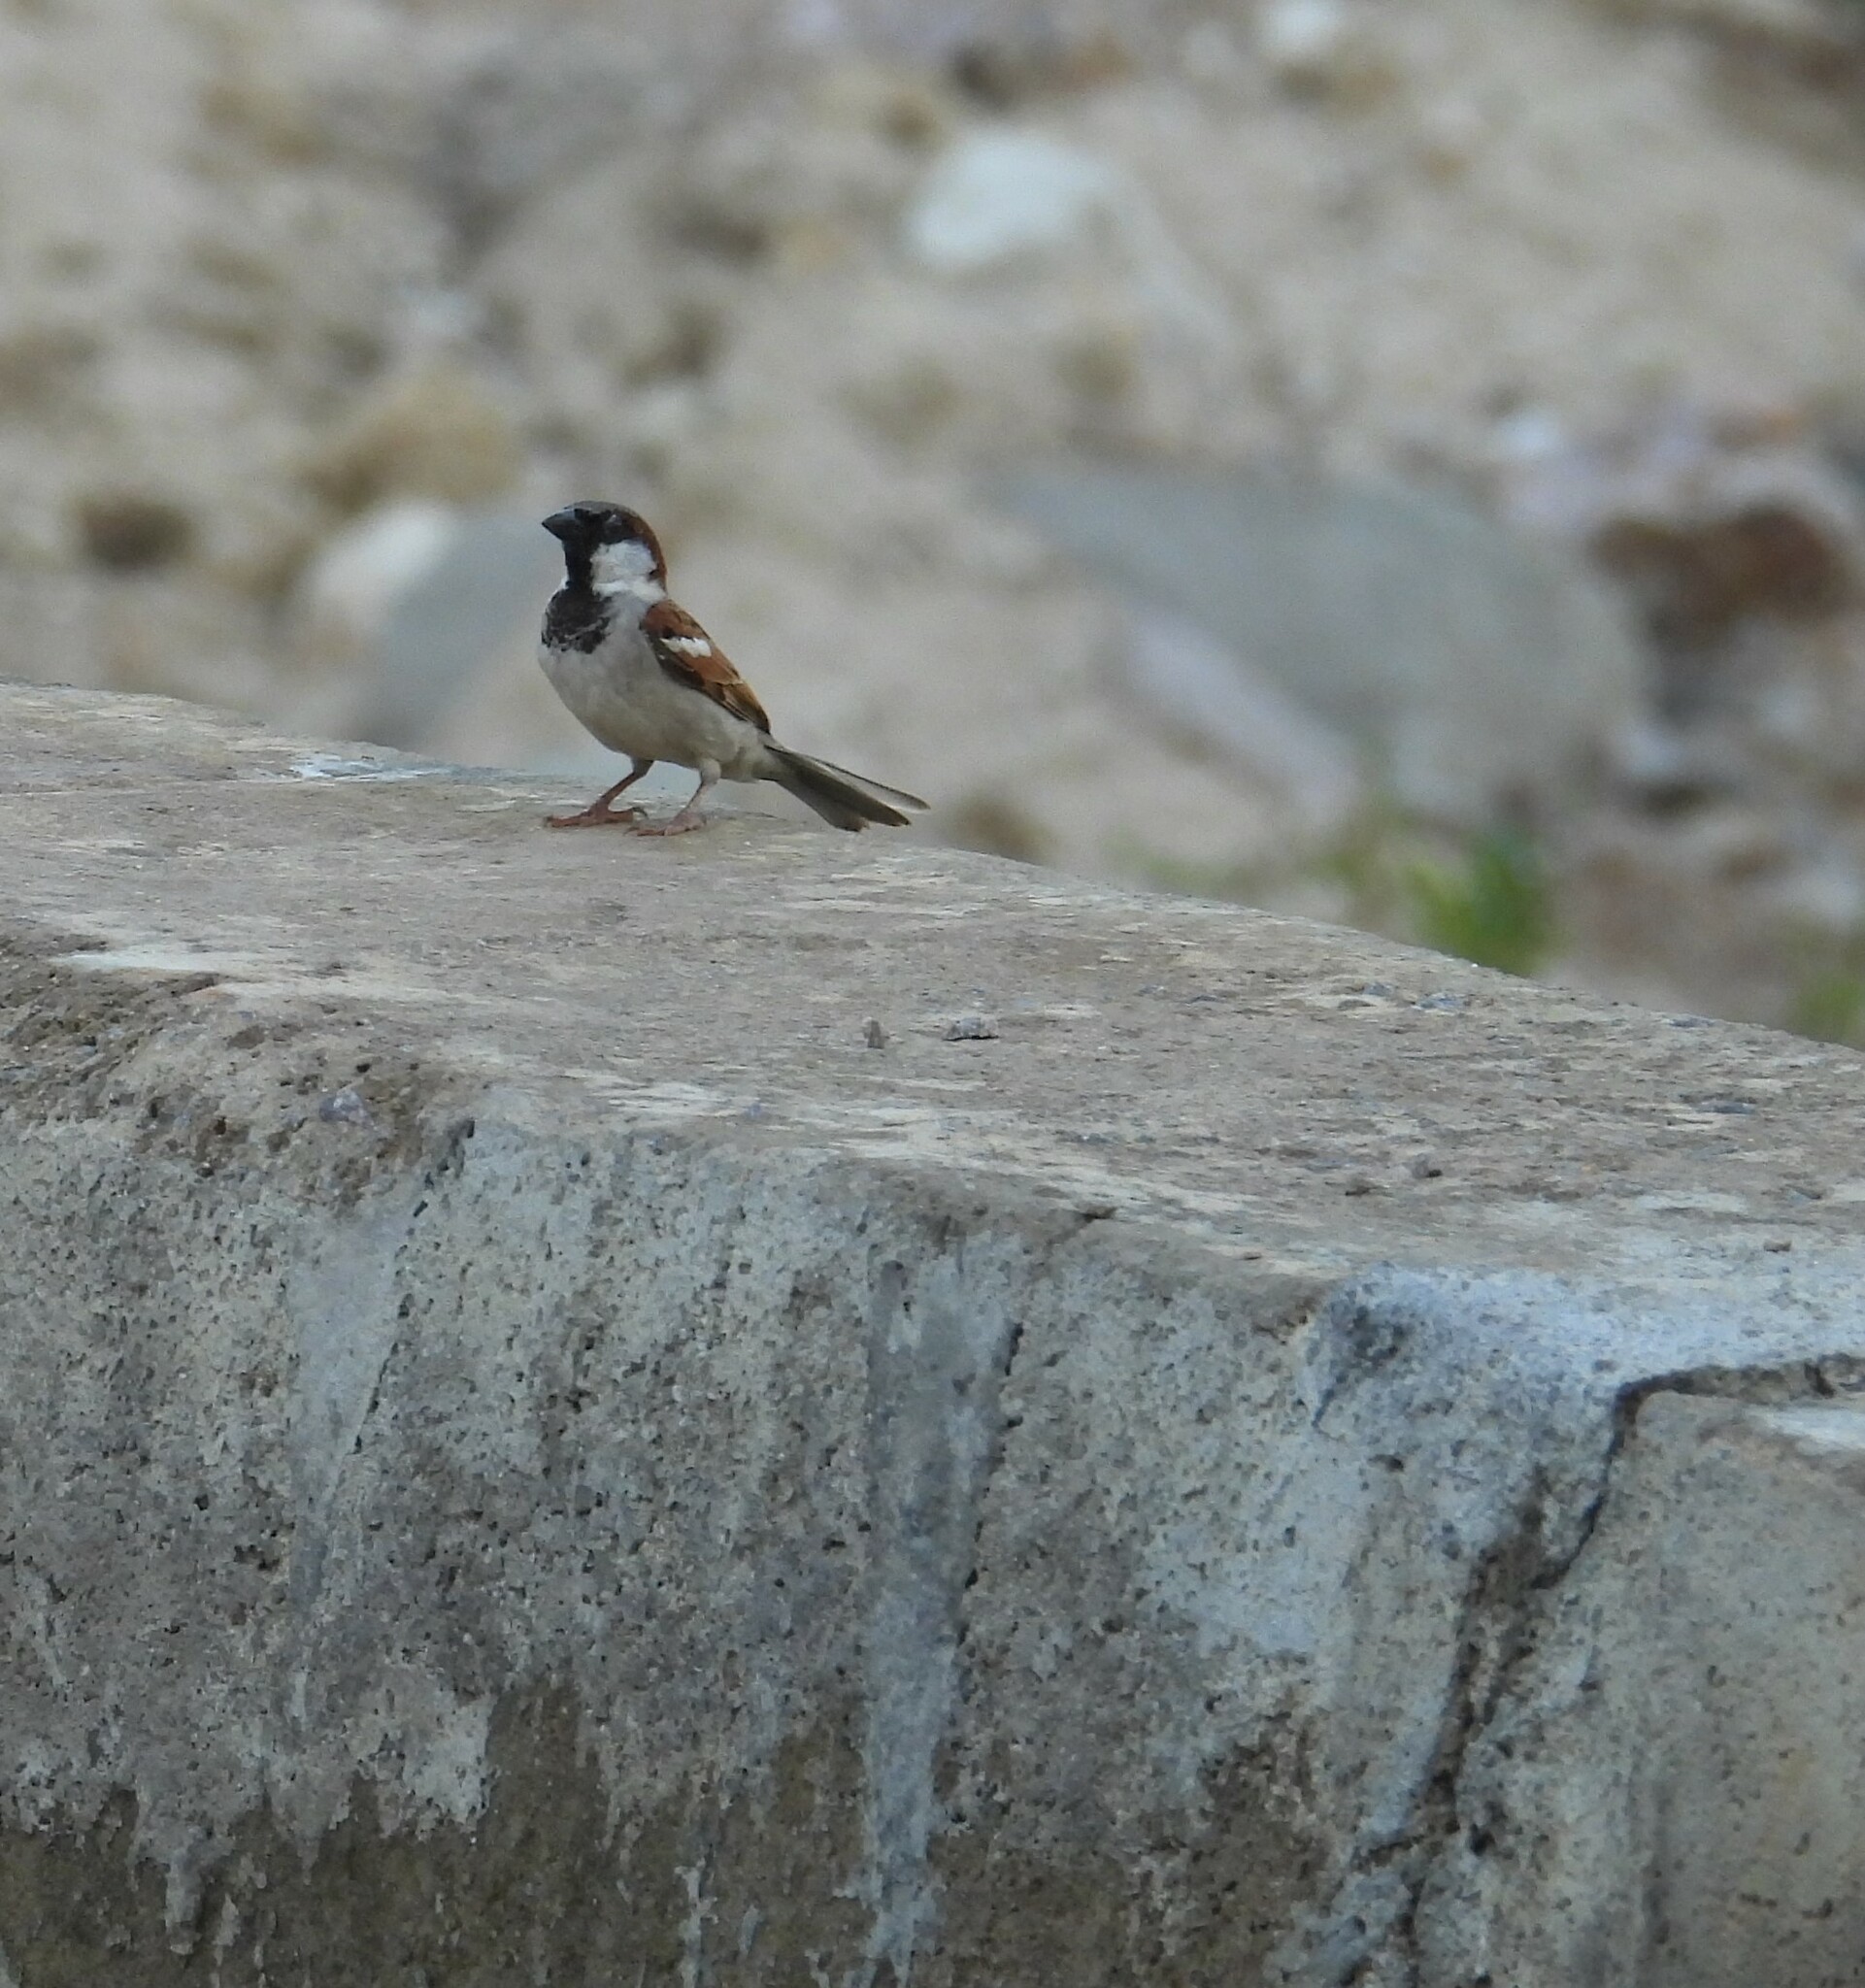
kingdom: Animalia
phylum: Chordata
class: Aves
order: Passeriformes
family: Passeridae
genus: Passer
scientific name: Passer domesticus
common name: House sparrow
